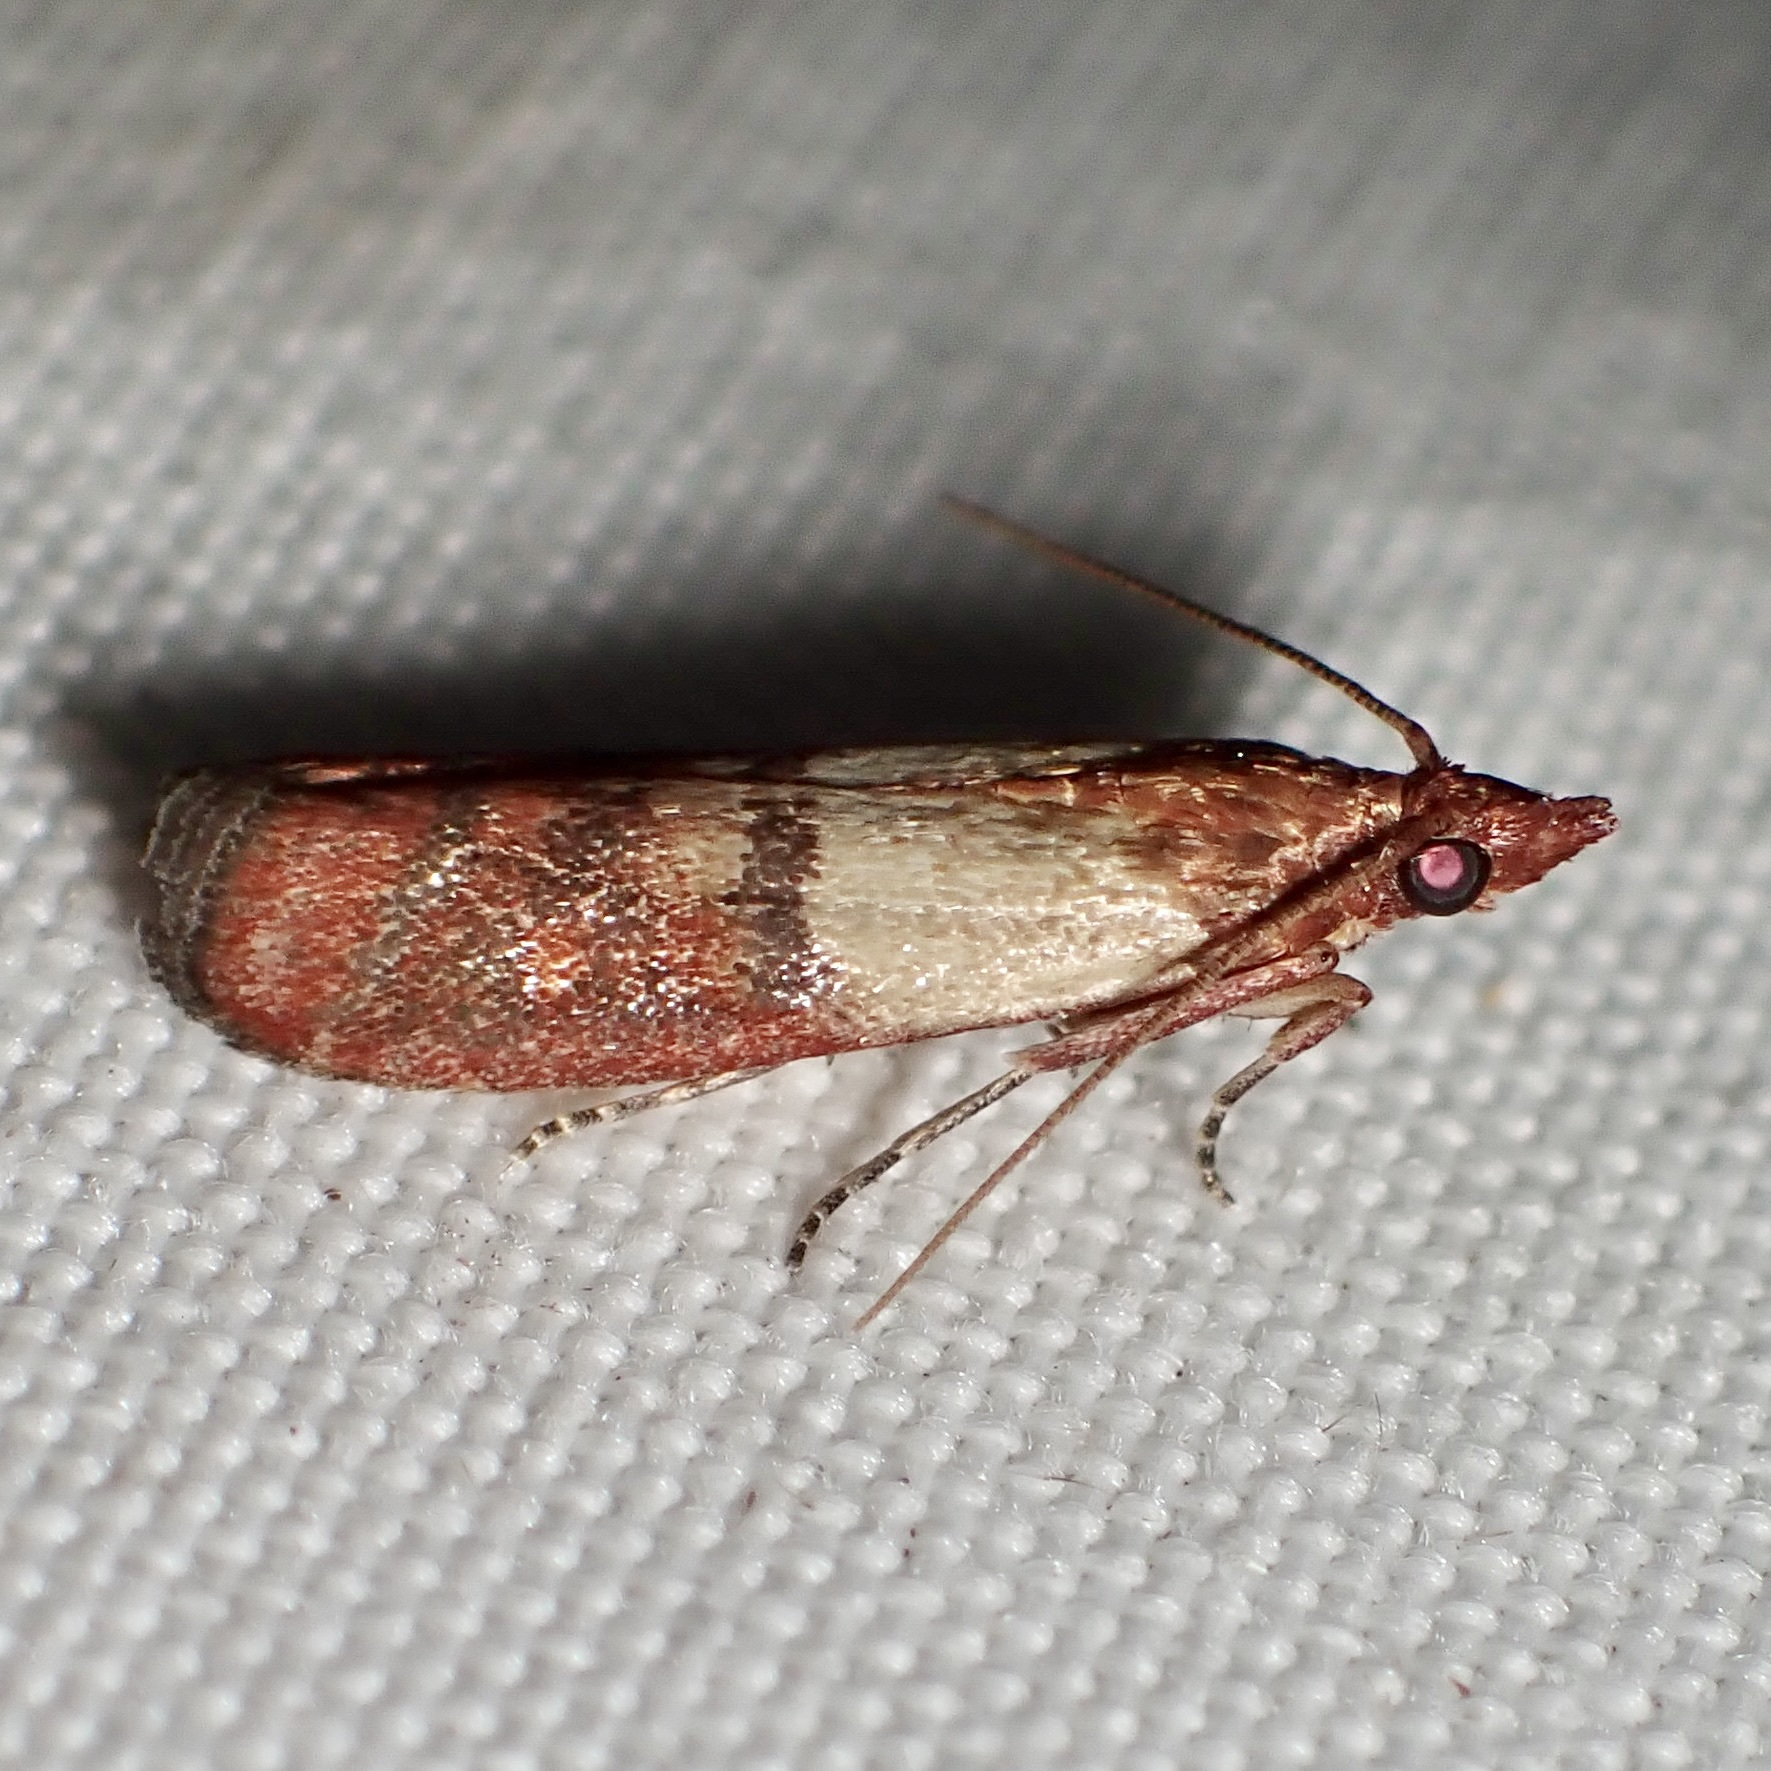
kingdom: Animalia
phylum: Arthropoda
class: Insecta
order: Lepidoptera
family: Pyralidae
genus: Plodia
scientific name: Plodia interpunctella
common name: Indian meal moth
